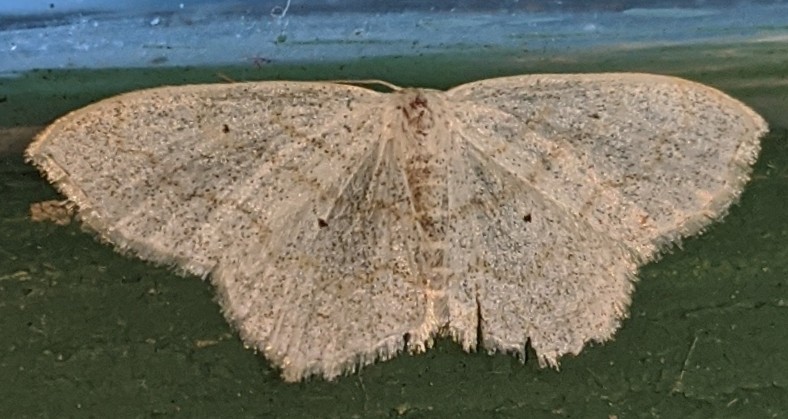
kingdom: Animalia
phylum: Arthropoda
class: Insecta
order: Lepidoptera
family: Geometridae
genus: Scopula
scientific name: Scopula limboundata
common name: Large lace border
